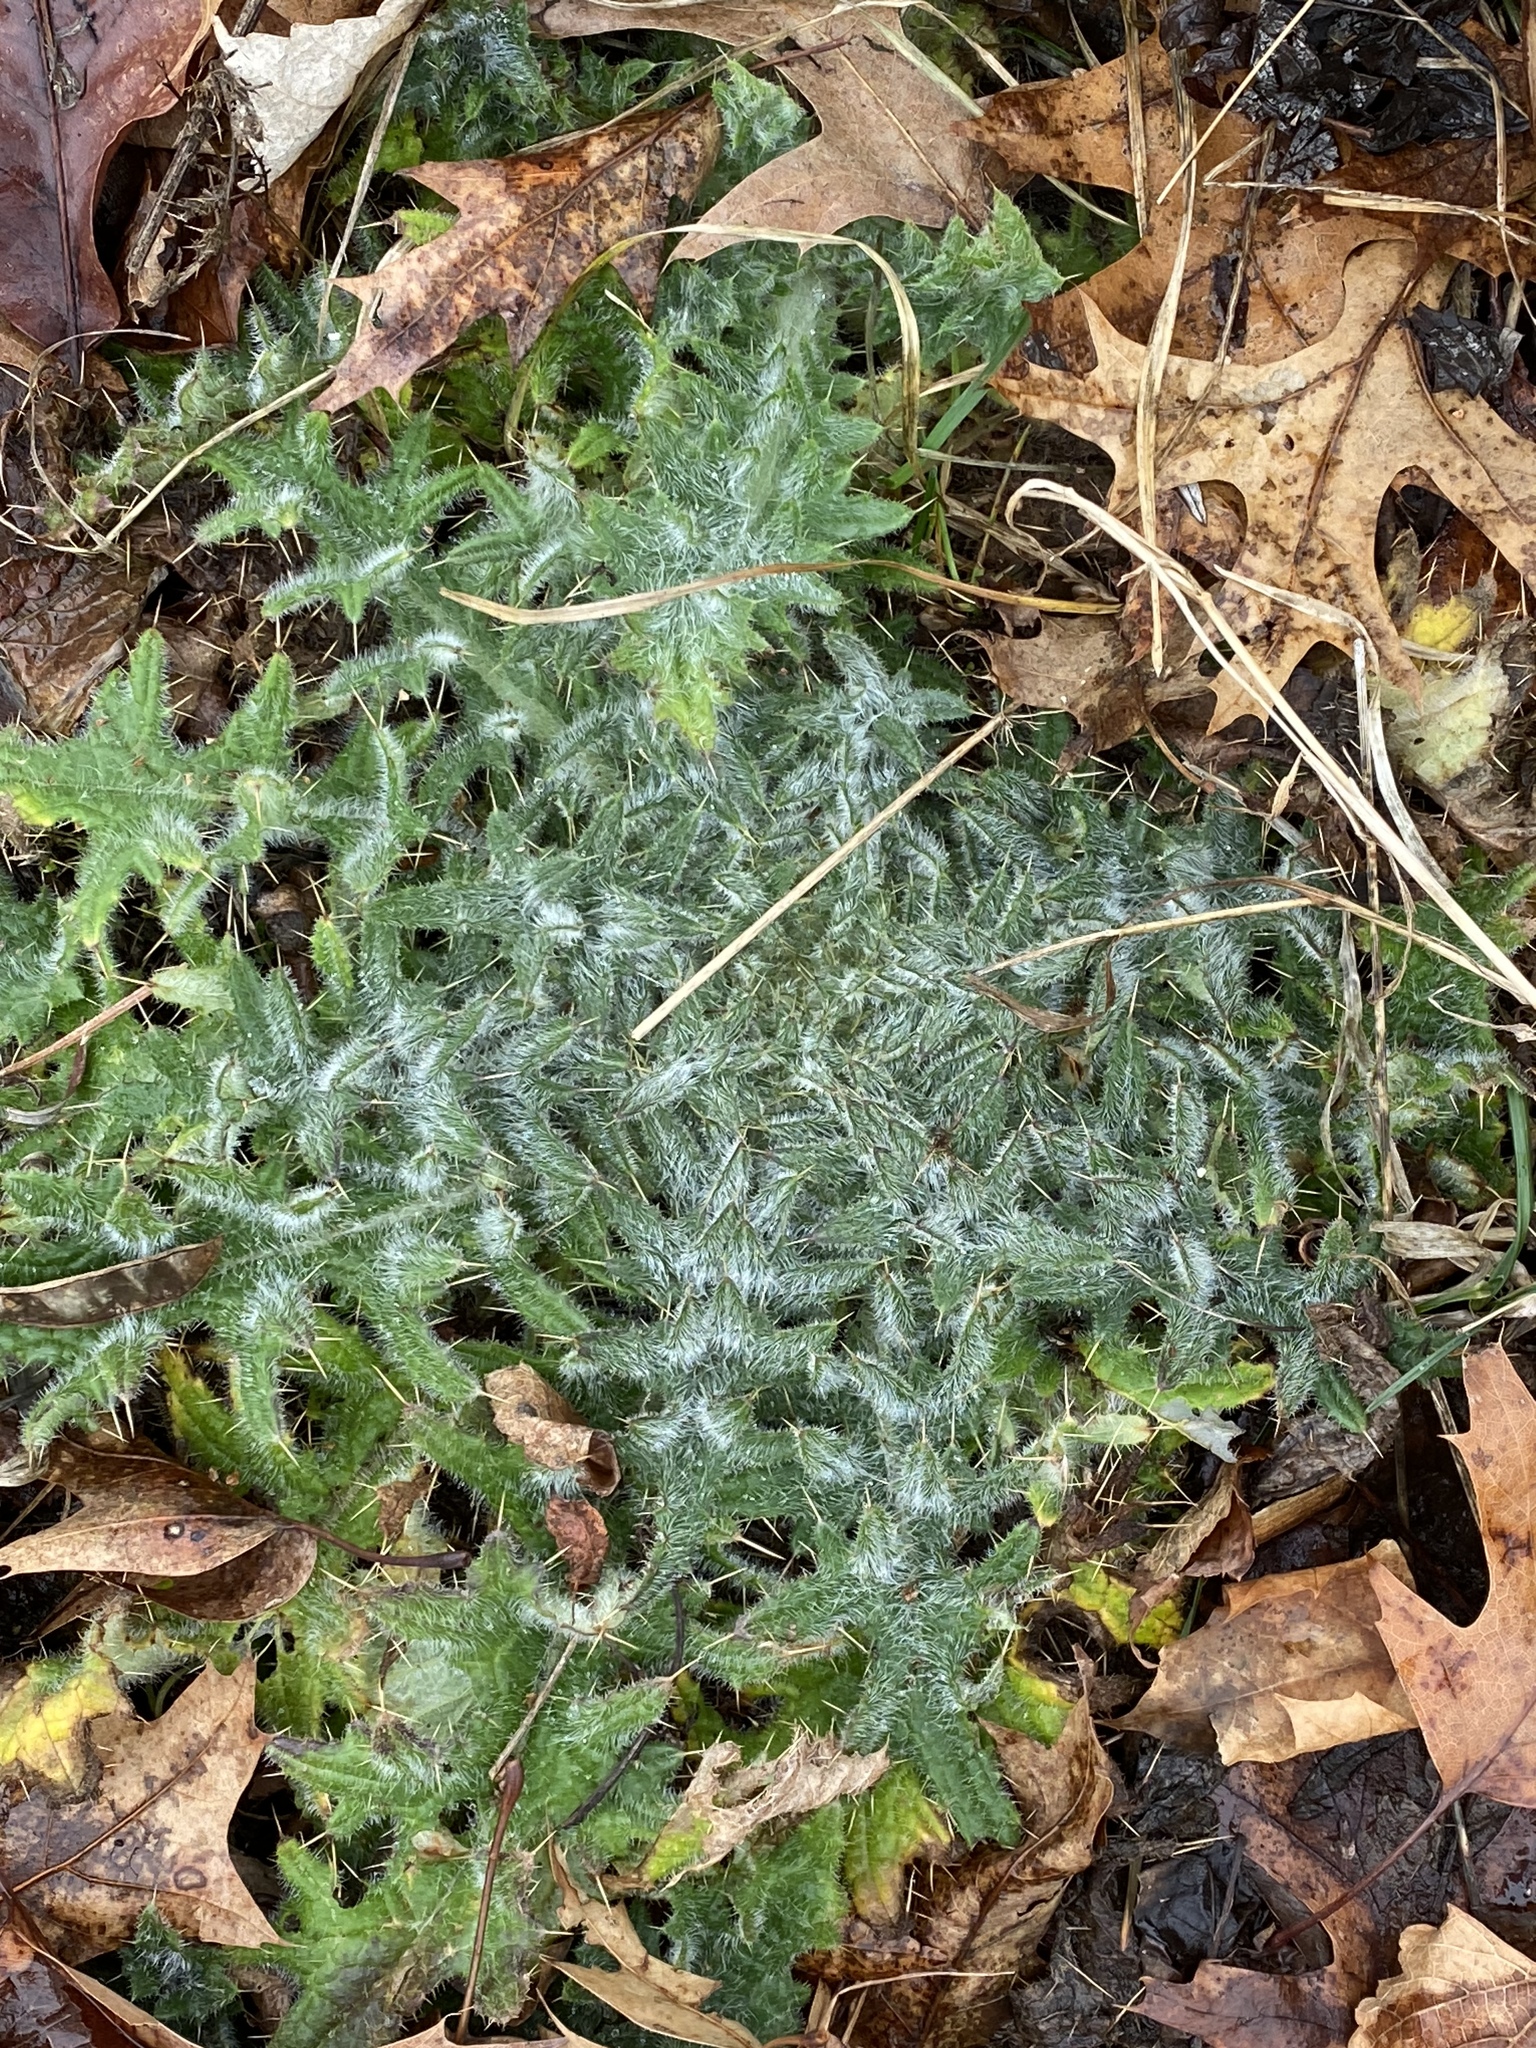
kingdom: Plantae
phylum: Tracheophyta
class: Magnoliopsida
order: Asterales
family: Asteraceae
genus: Cirsium
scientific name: Cirsium vulgare
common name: Bull thistle
